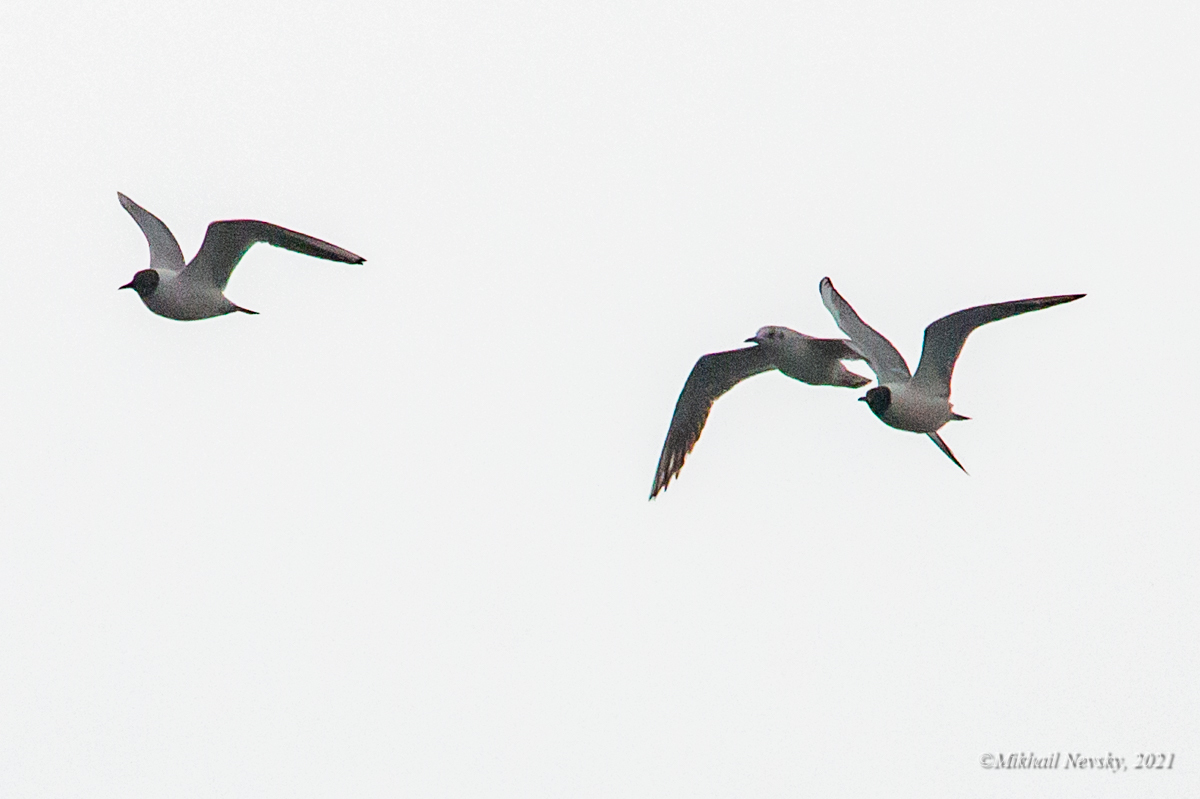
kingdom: Animalia
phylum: Chordata
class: Aves
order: Charadriiformes
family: Laridae
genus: Chroicocephalus
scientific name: Chroicocephalus ridibundus
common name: Black-headed gull
